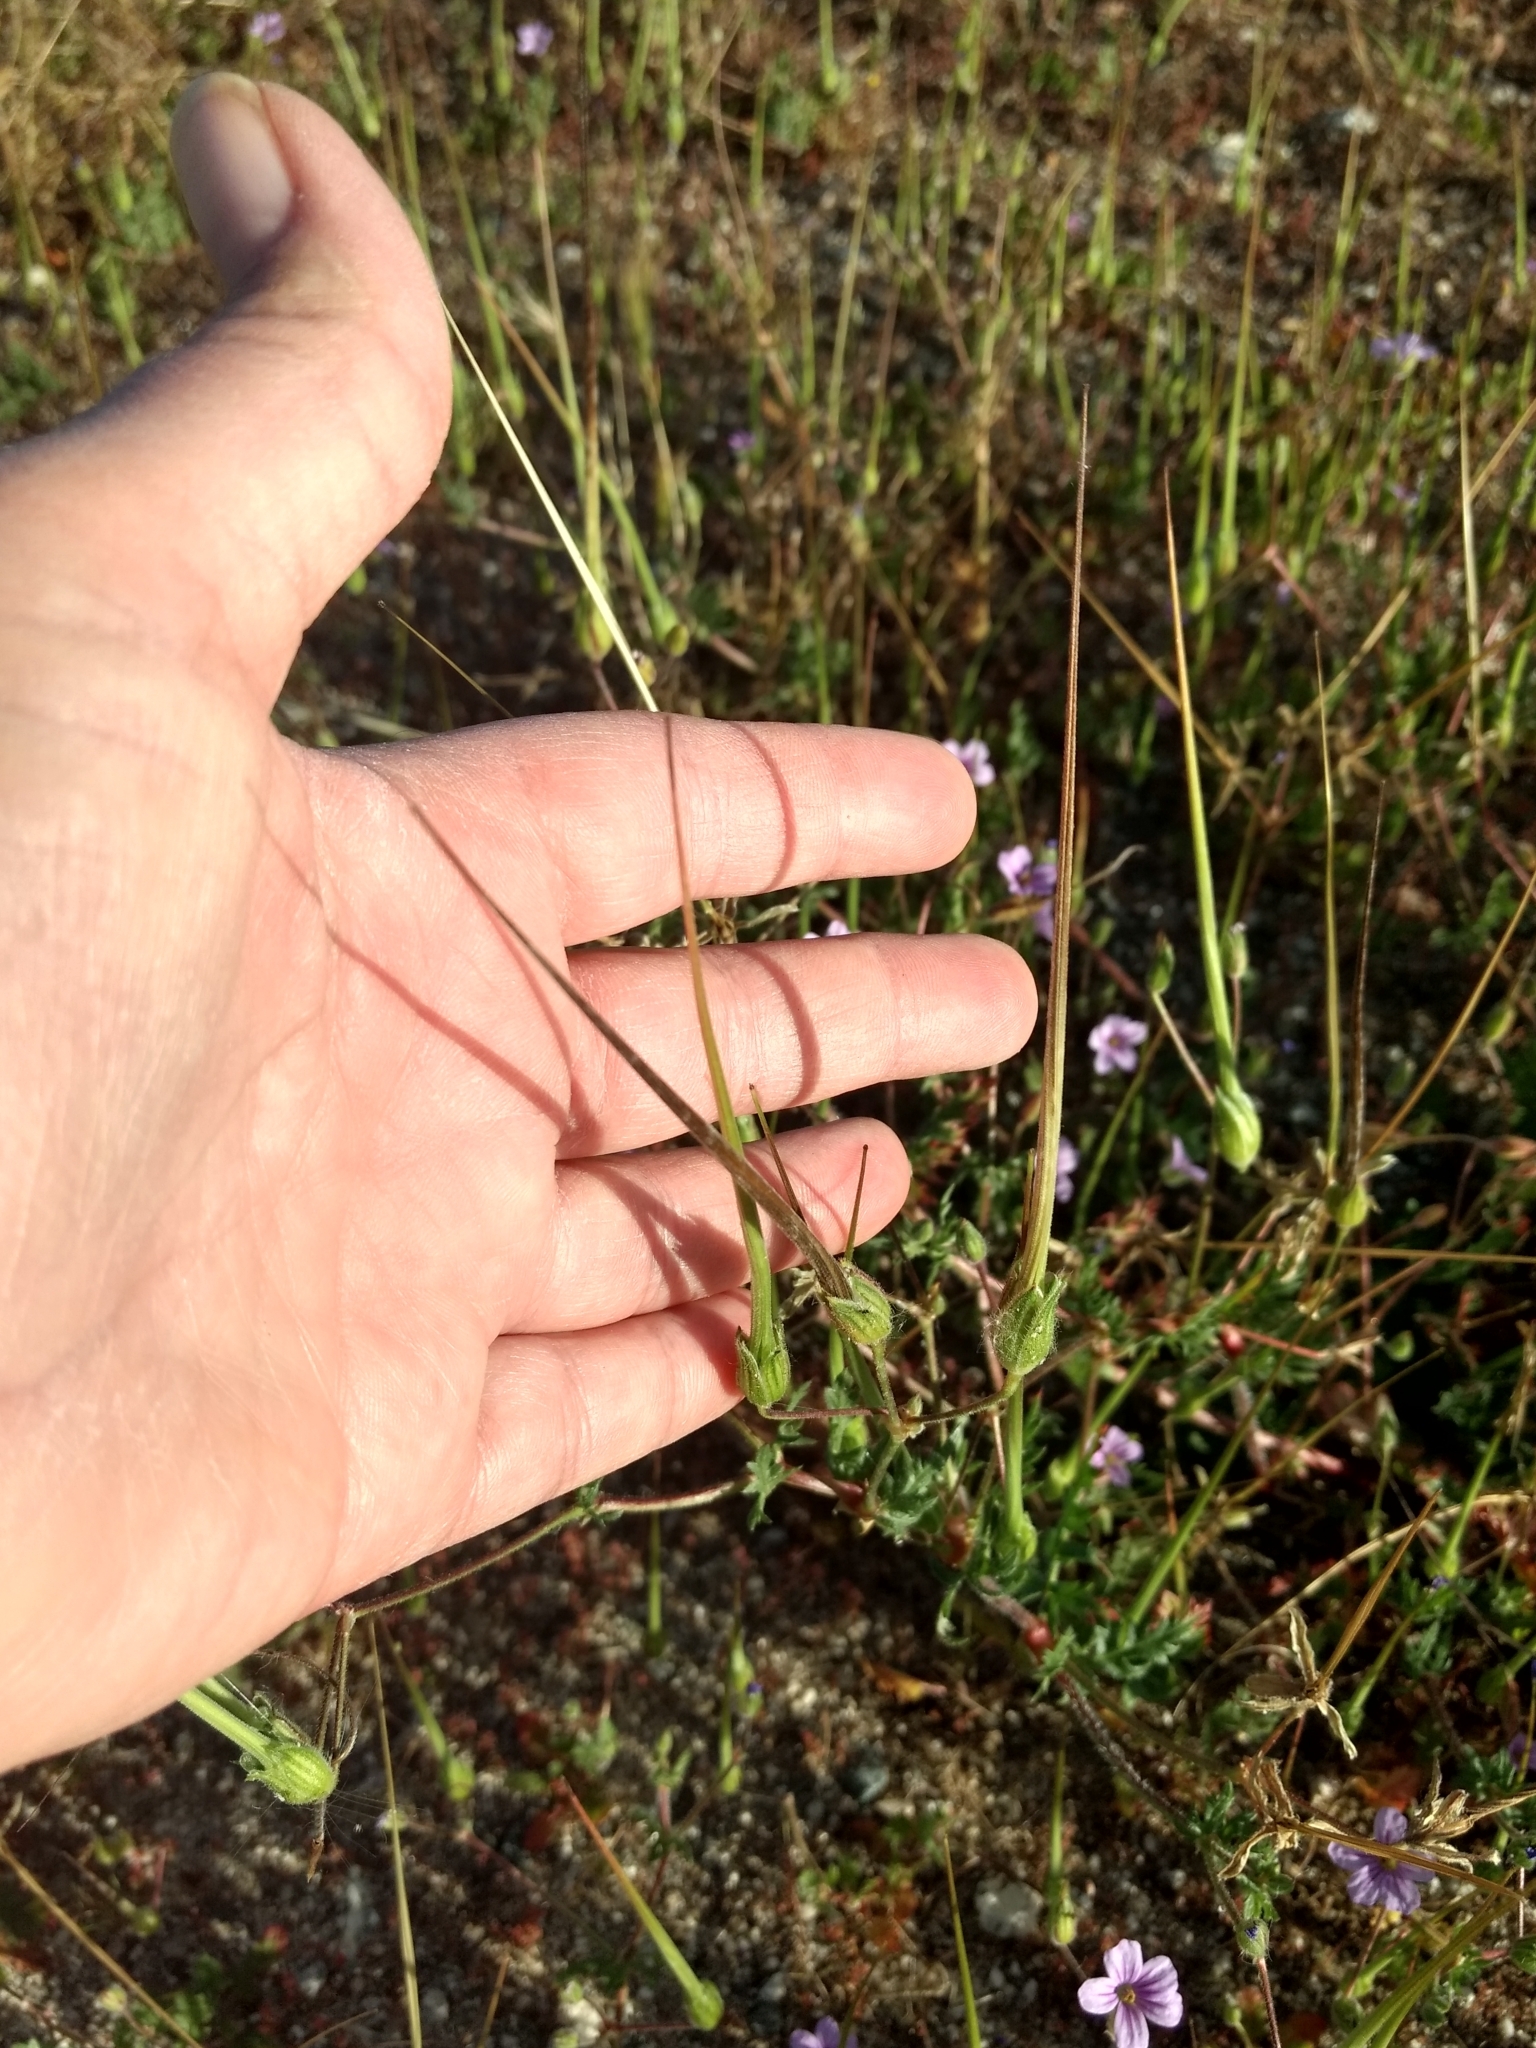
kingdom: Plantae
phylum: Tracheophyta
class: Magnoliopsida
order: Geraniales
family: Geraniaceae
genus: Erodium
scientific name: Erodium botrys
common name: Mediterranean stork's-bill
